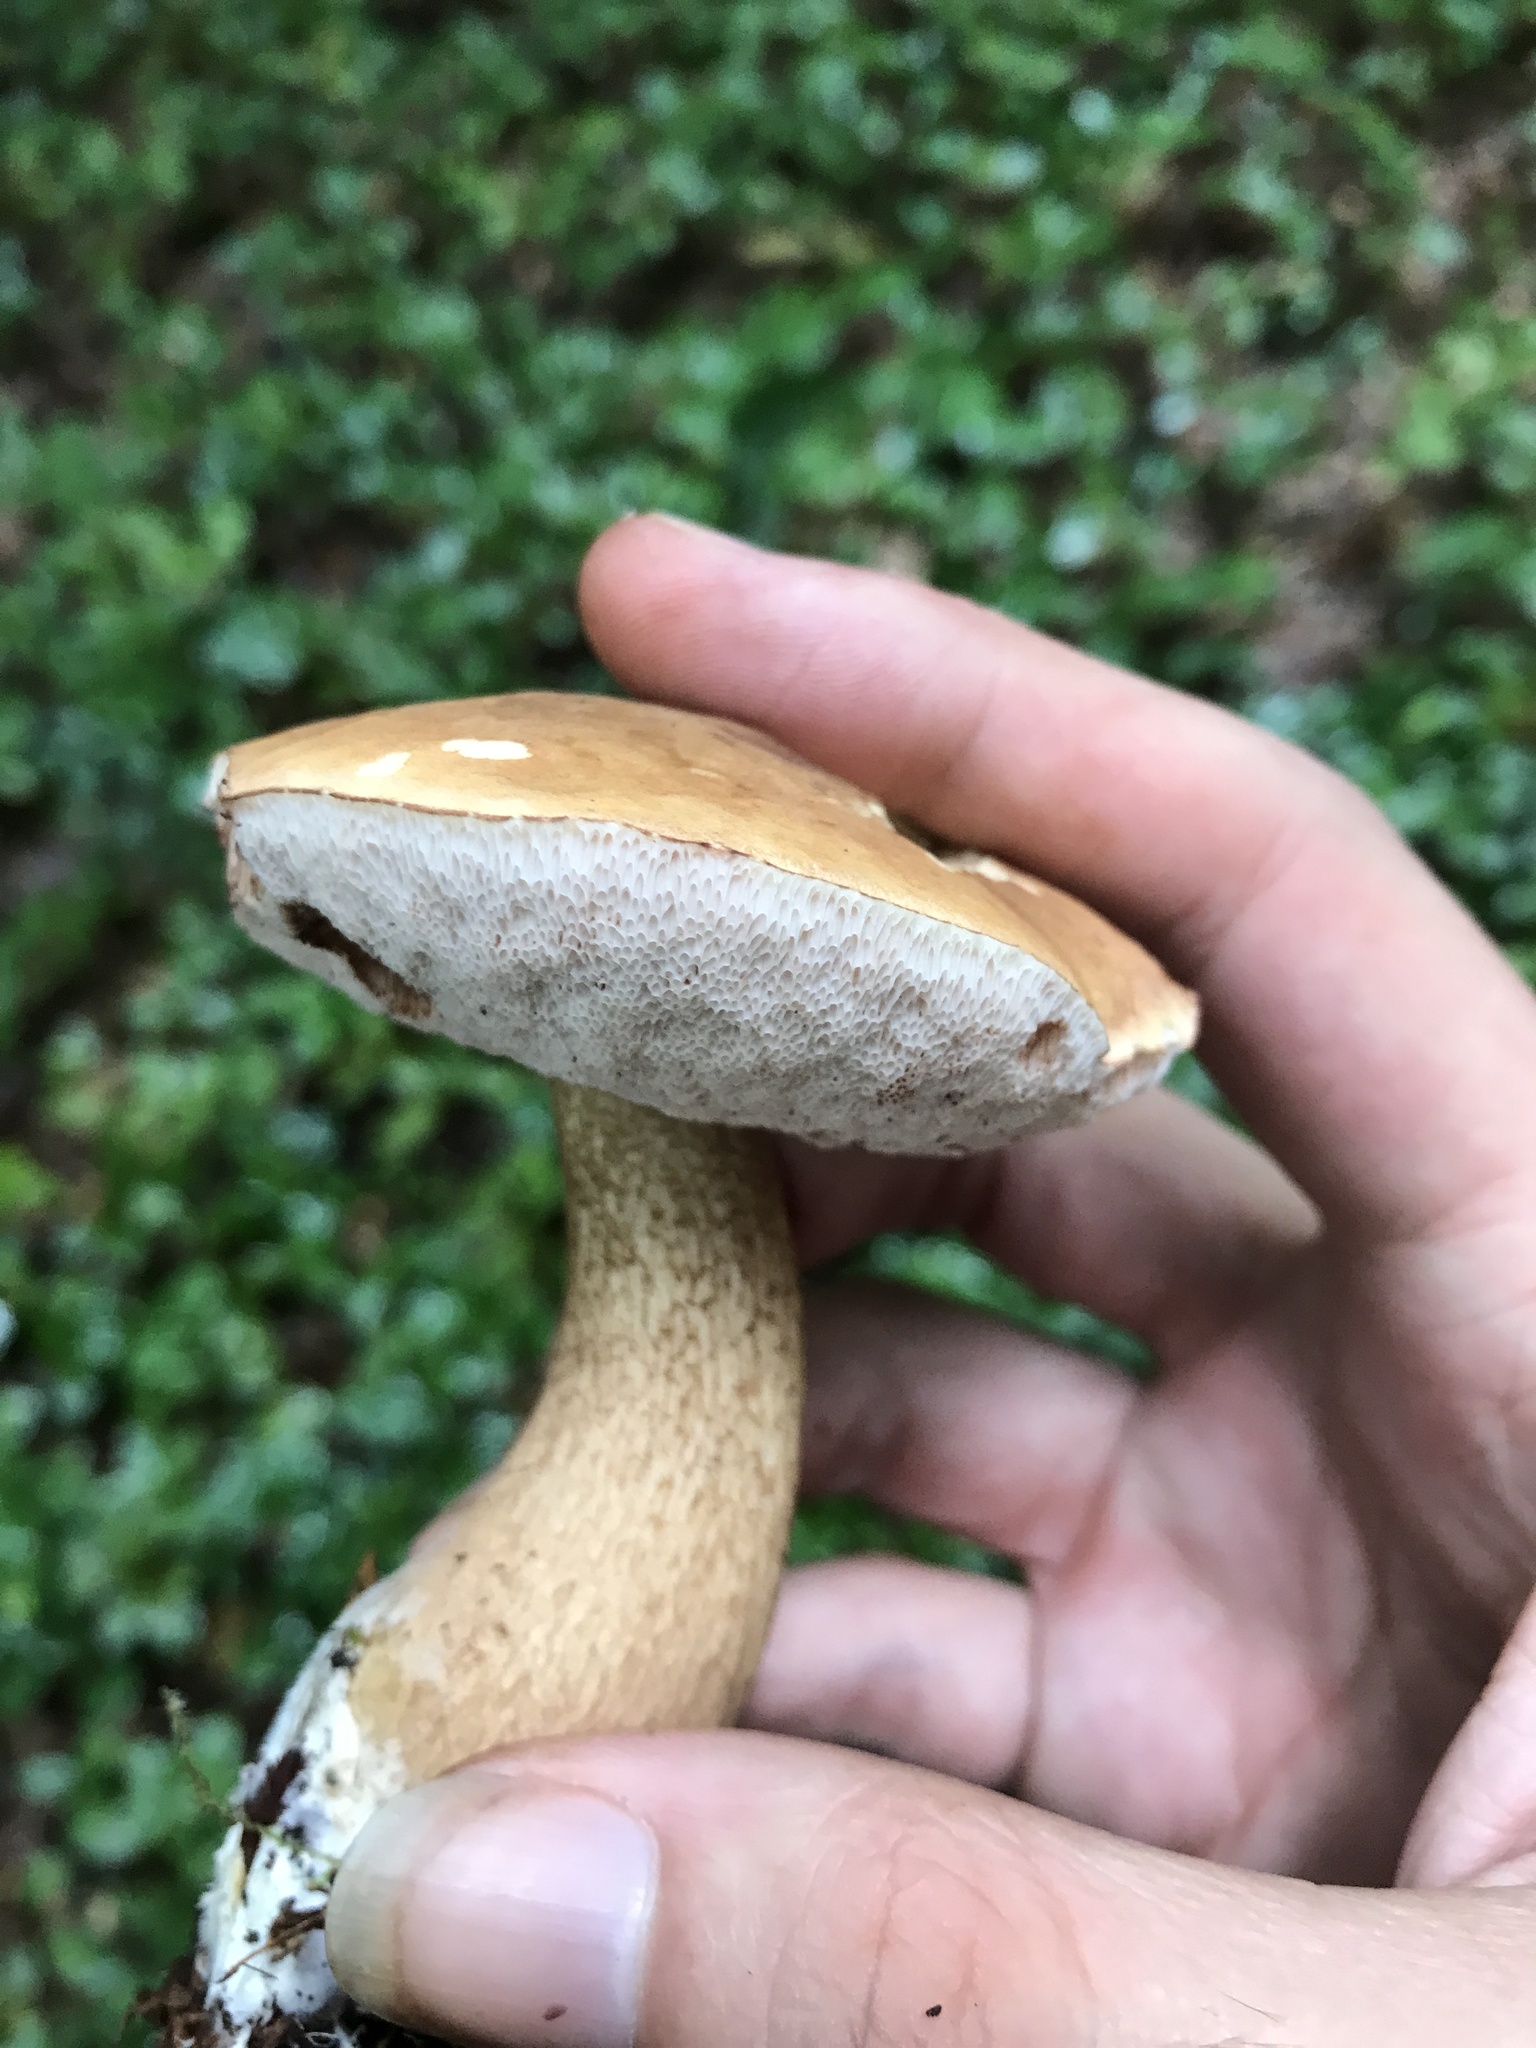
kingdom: Fungi
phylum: Basidiomycota
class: Agaricomycetes
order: Boletales
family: Boletaceae
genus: Tylopilus
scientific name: Tylopilus felleus
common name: Bitter bolete
